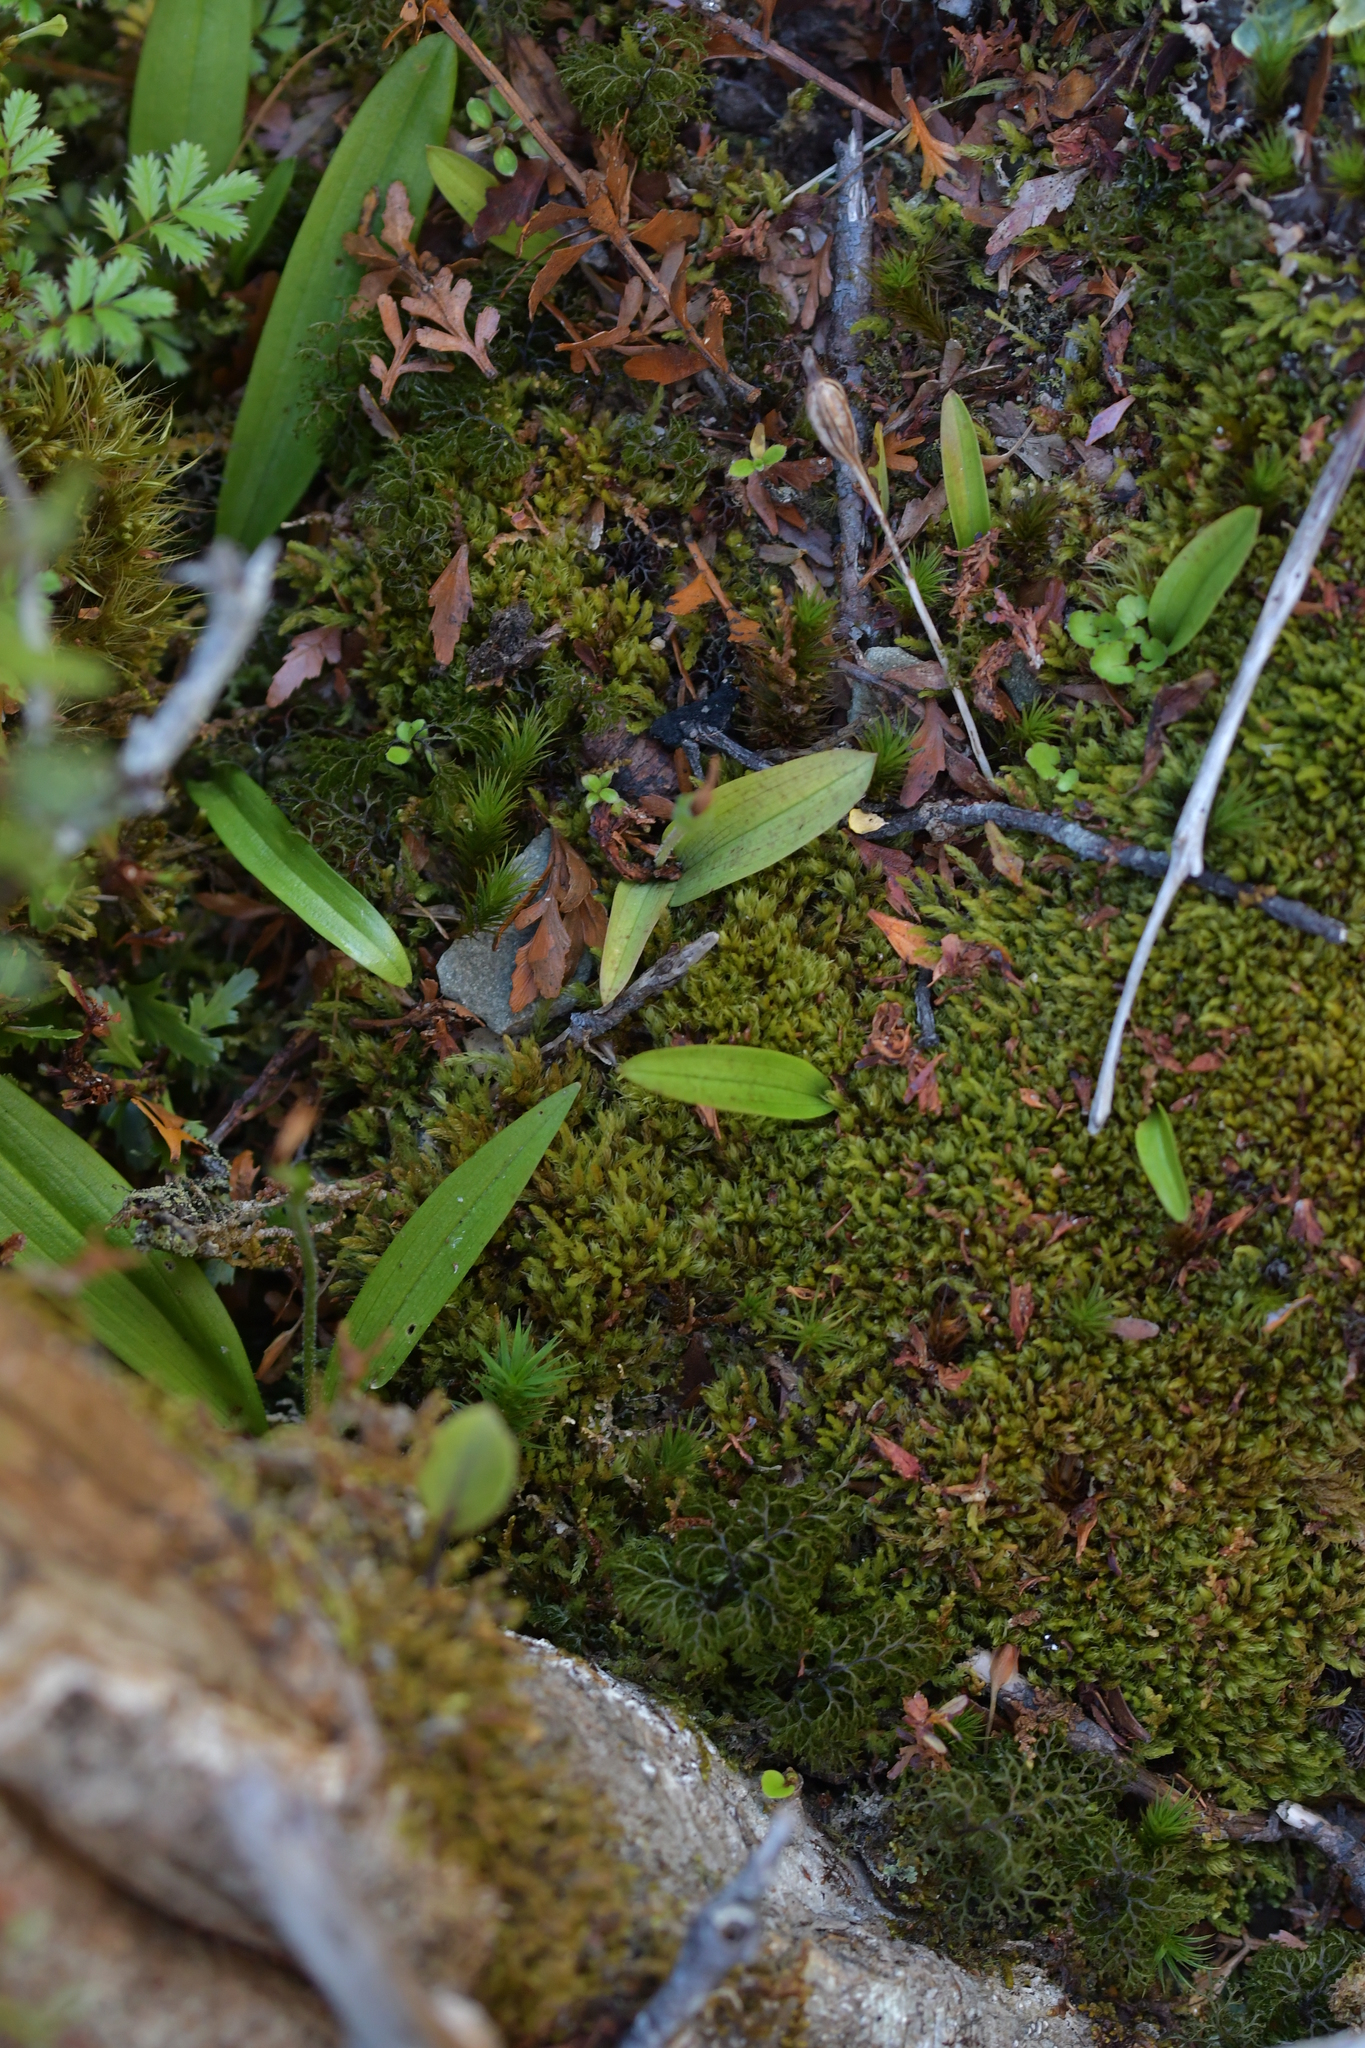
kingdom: Plantae
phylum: Tracheophyta
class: Liliopsida
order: Asparagales
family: Orchidaceae
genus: Aporostylis
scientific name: Aporostylis bifolia
